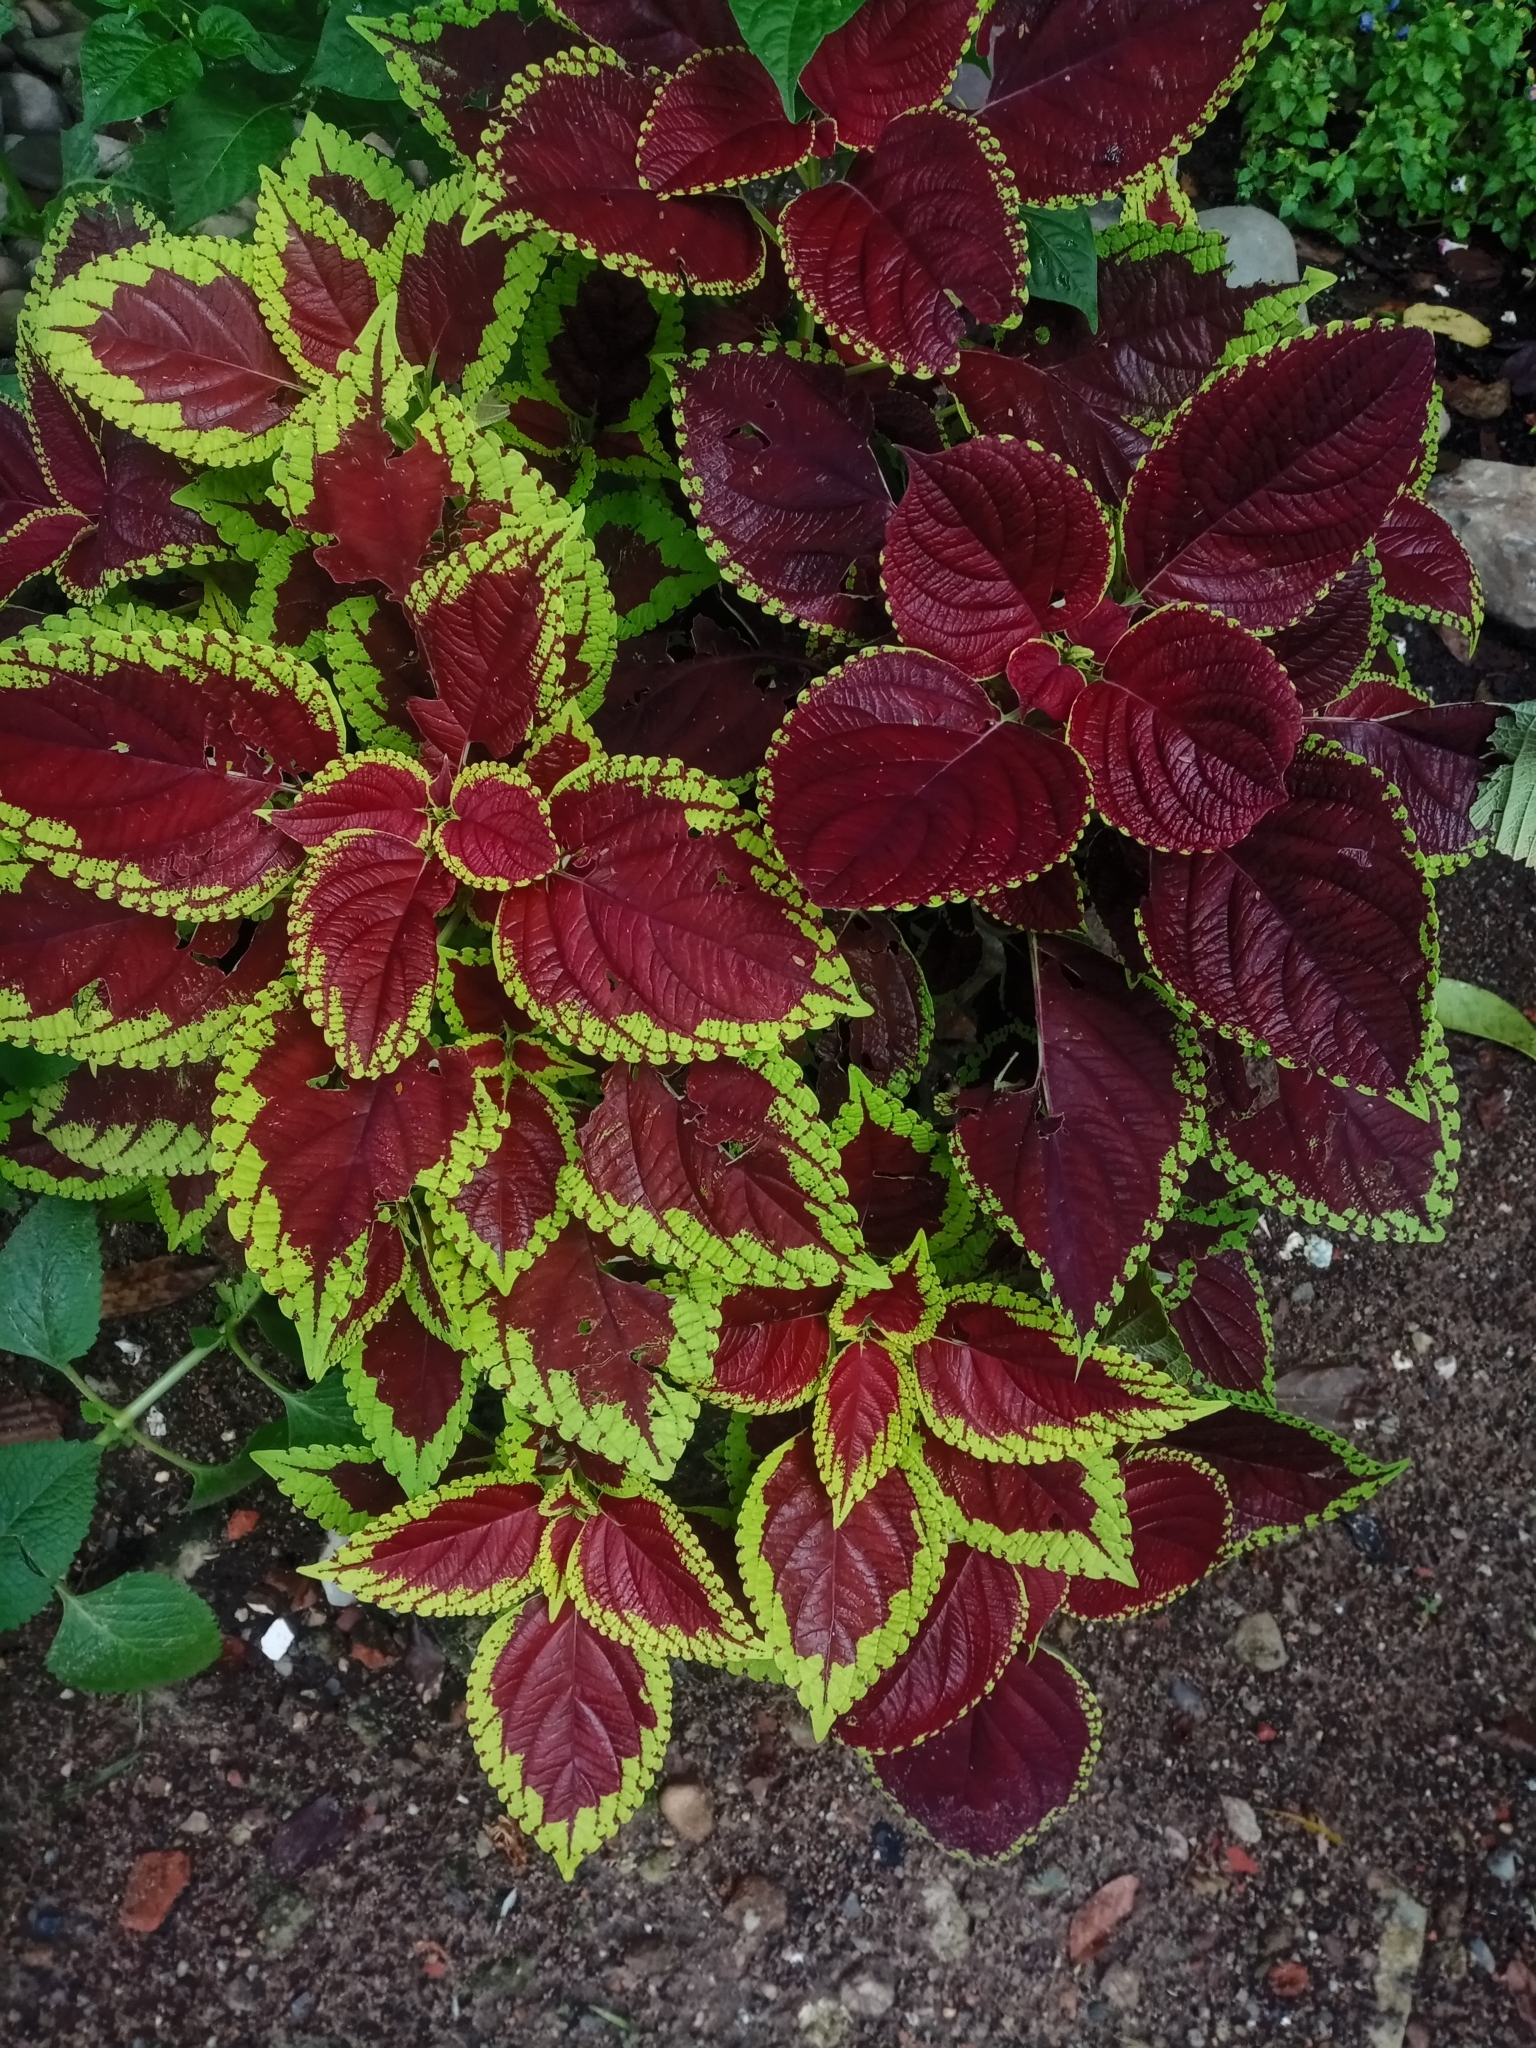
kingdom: Plantae
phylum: Tracheophyta
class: Magnoliopsida
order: Lamiales
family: Lamiaceae
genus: Coleus
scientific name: Coleus scutellarioides
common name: Coleus
